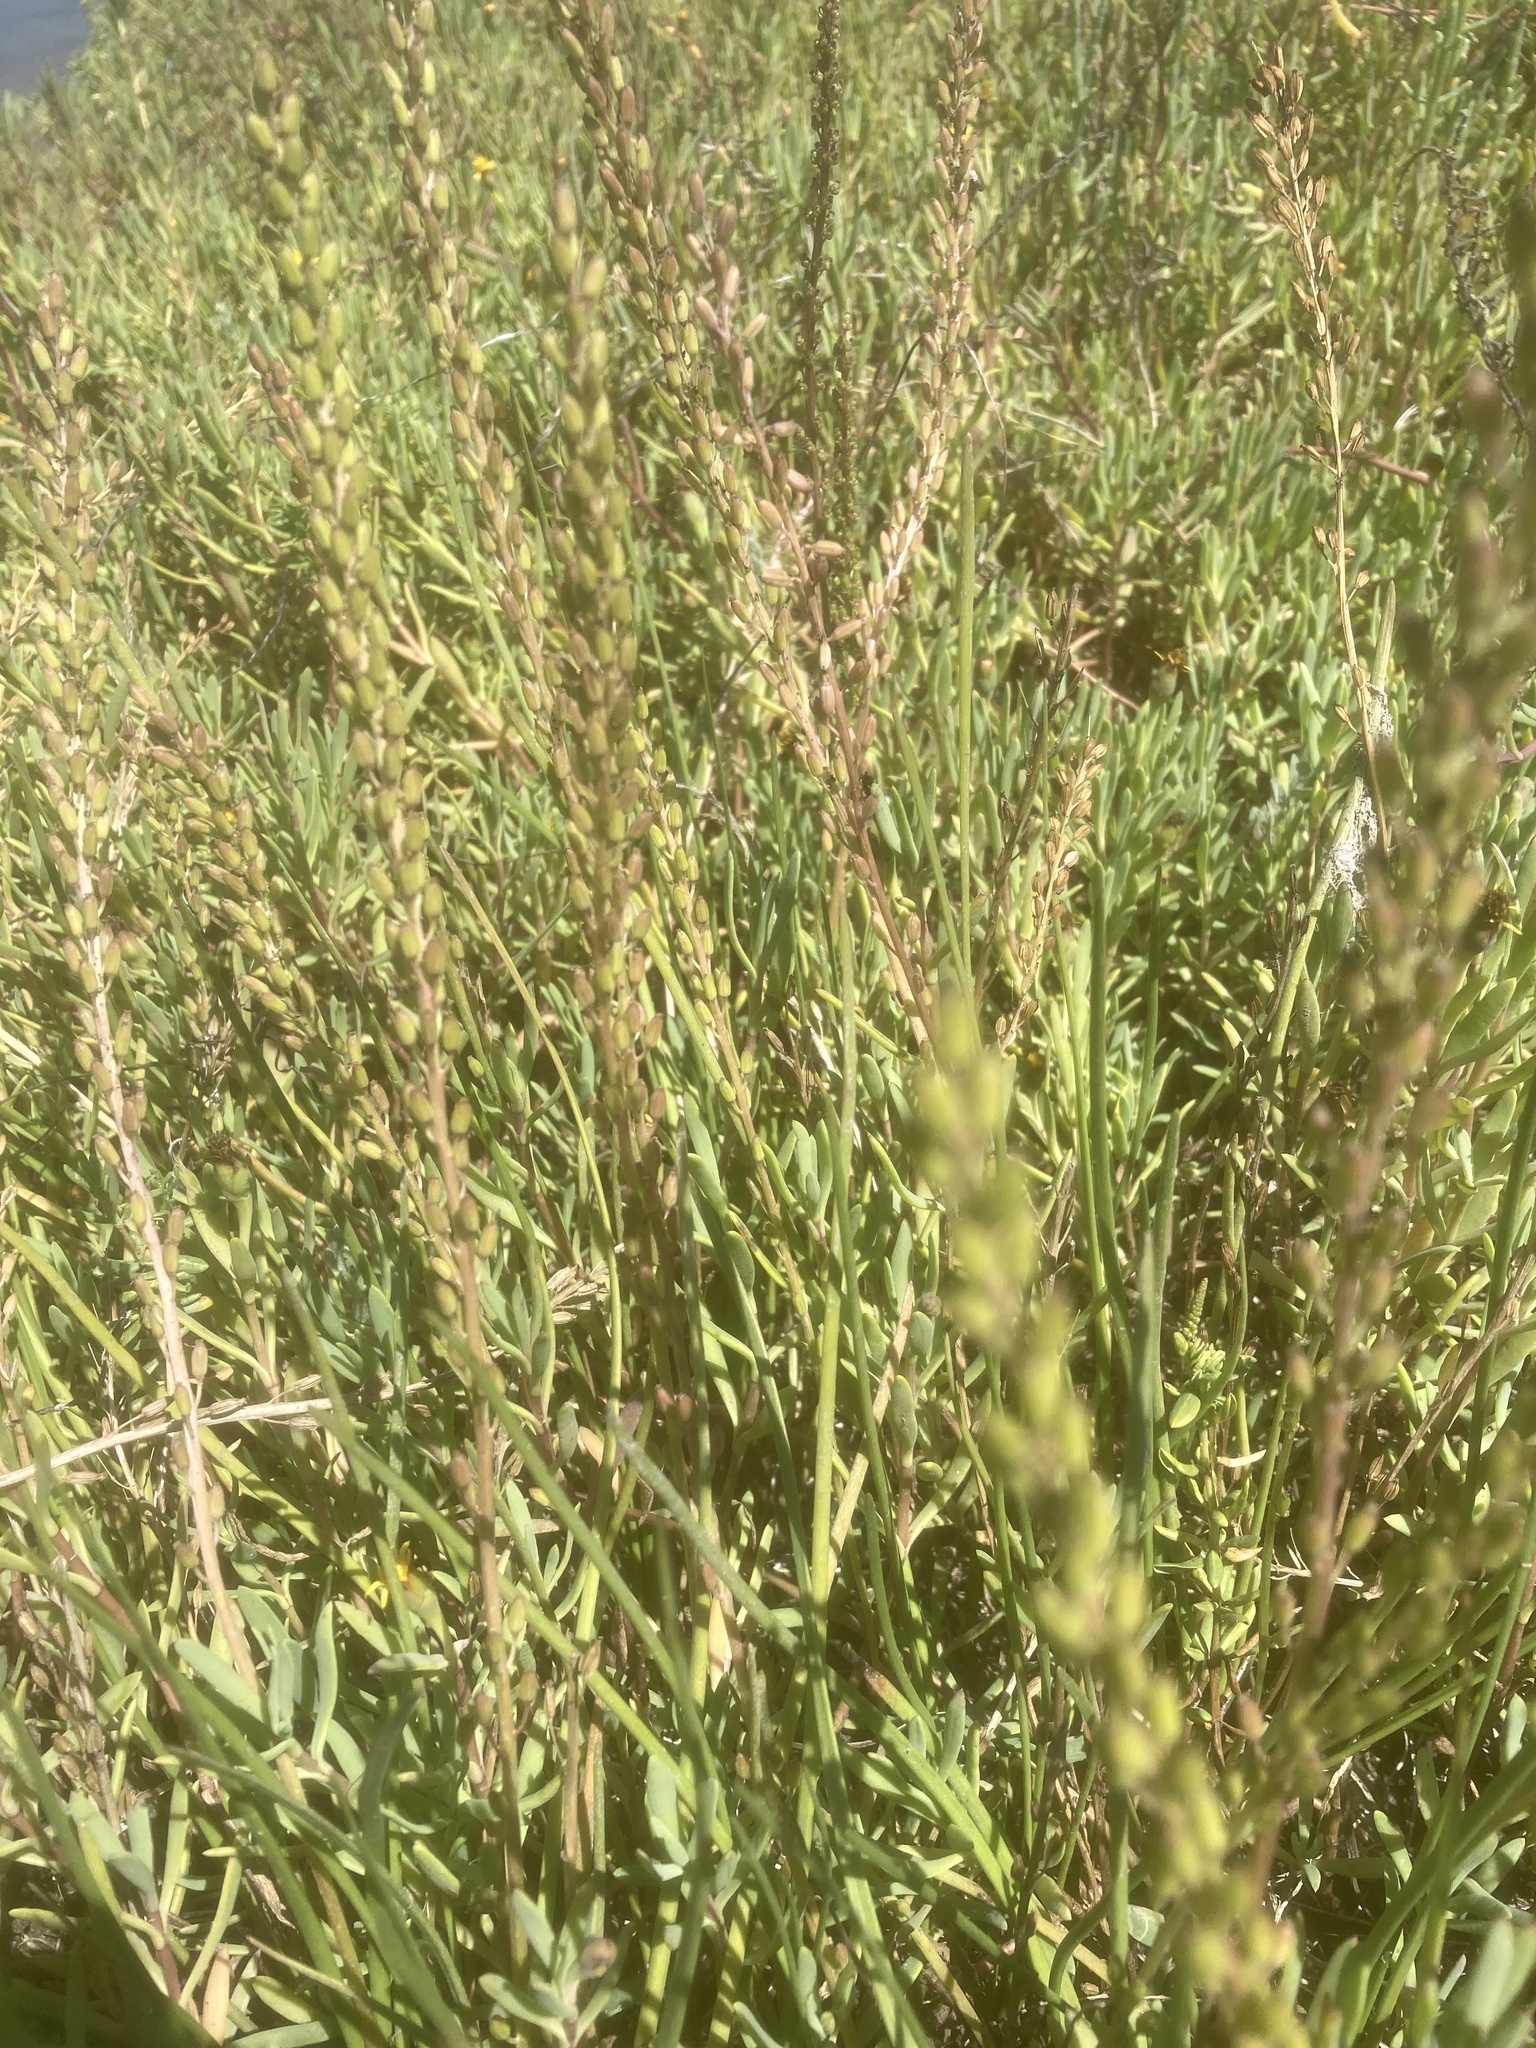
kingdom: Plantae
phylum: Tracheophyta
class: Liliopsida
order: Alismatales
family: Juncaginaceae
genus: Triglochin
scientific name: Triglochin maritima
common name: Sea arrowgrass
